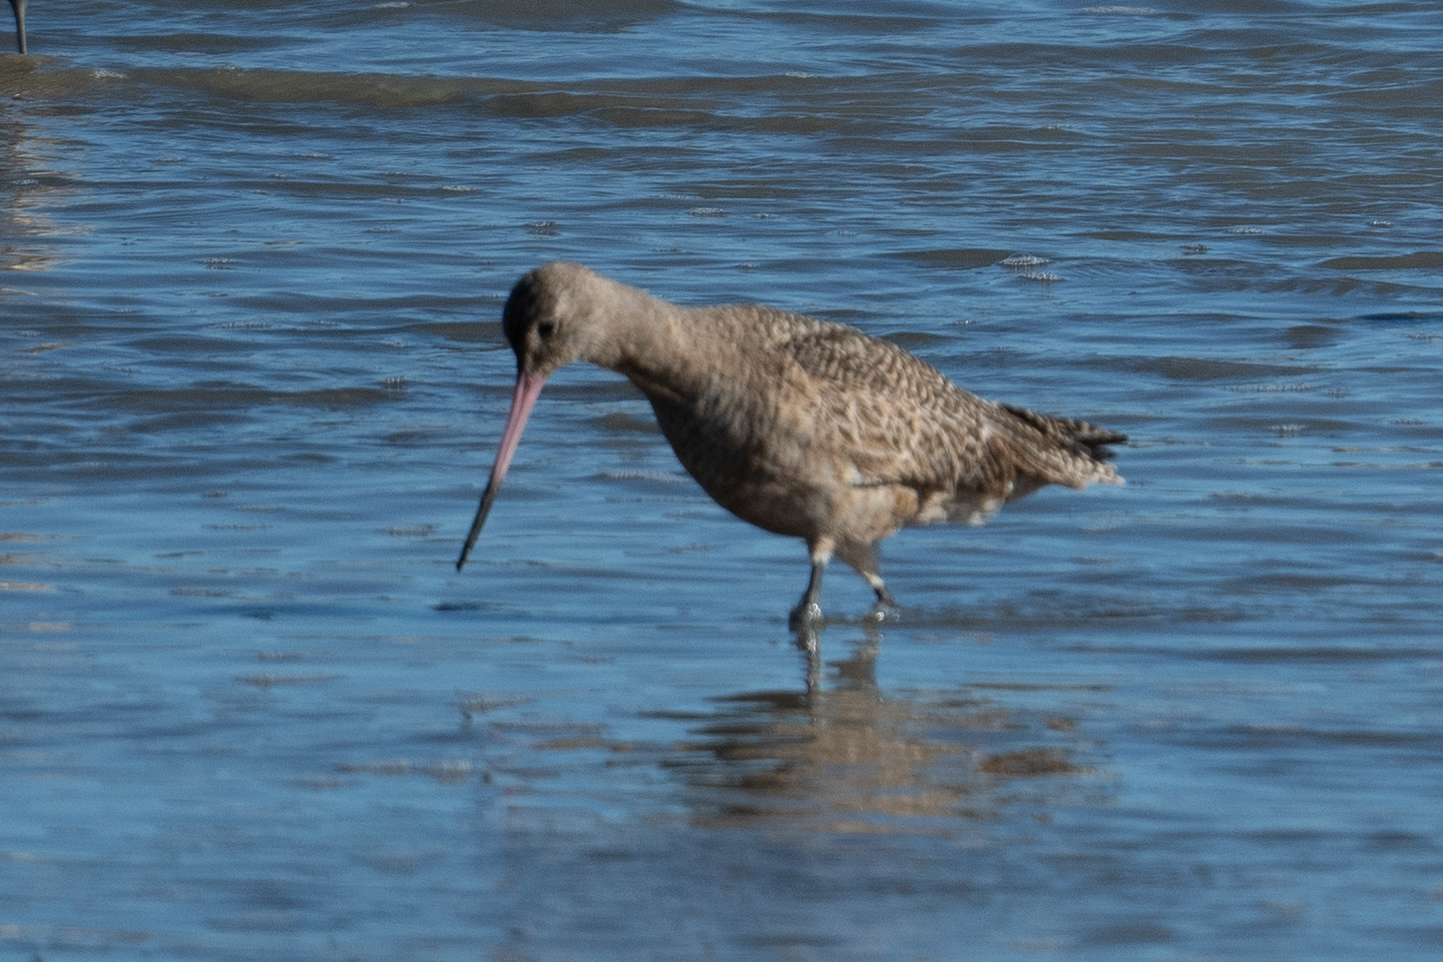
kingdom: Animalia
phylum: Chordata
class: Aves
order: Charadriiformes
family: Scolopacidae
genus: Limosa
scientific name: Limosa fedoa
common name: Marbled godwit
